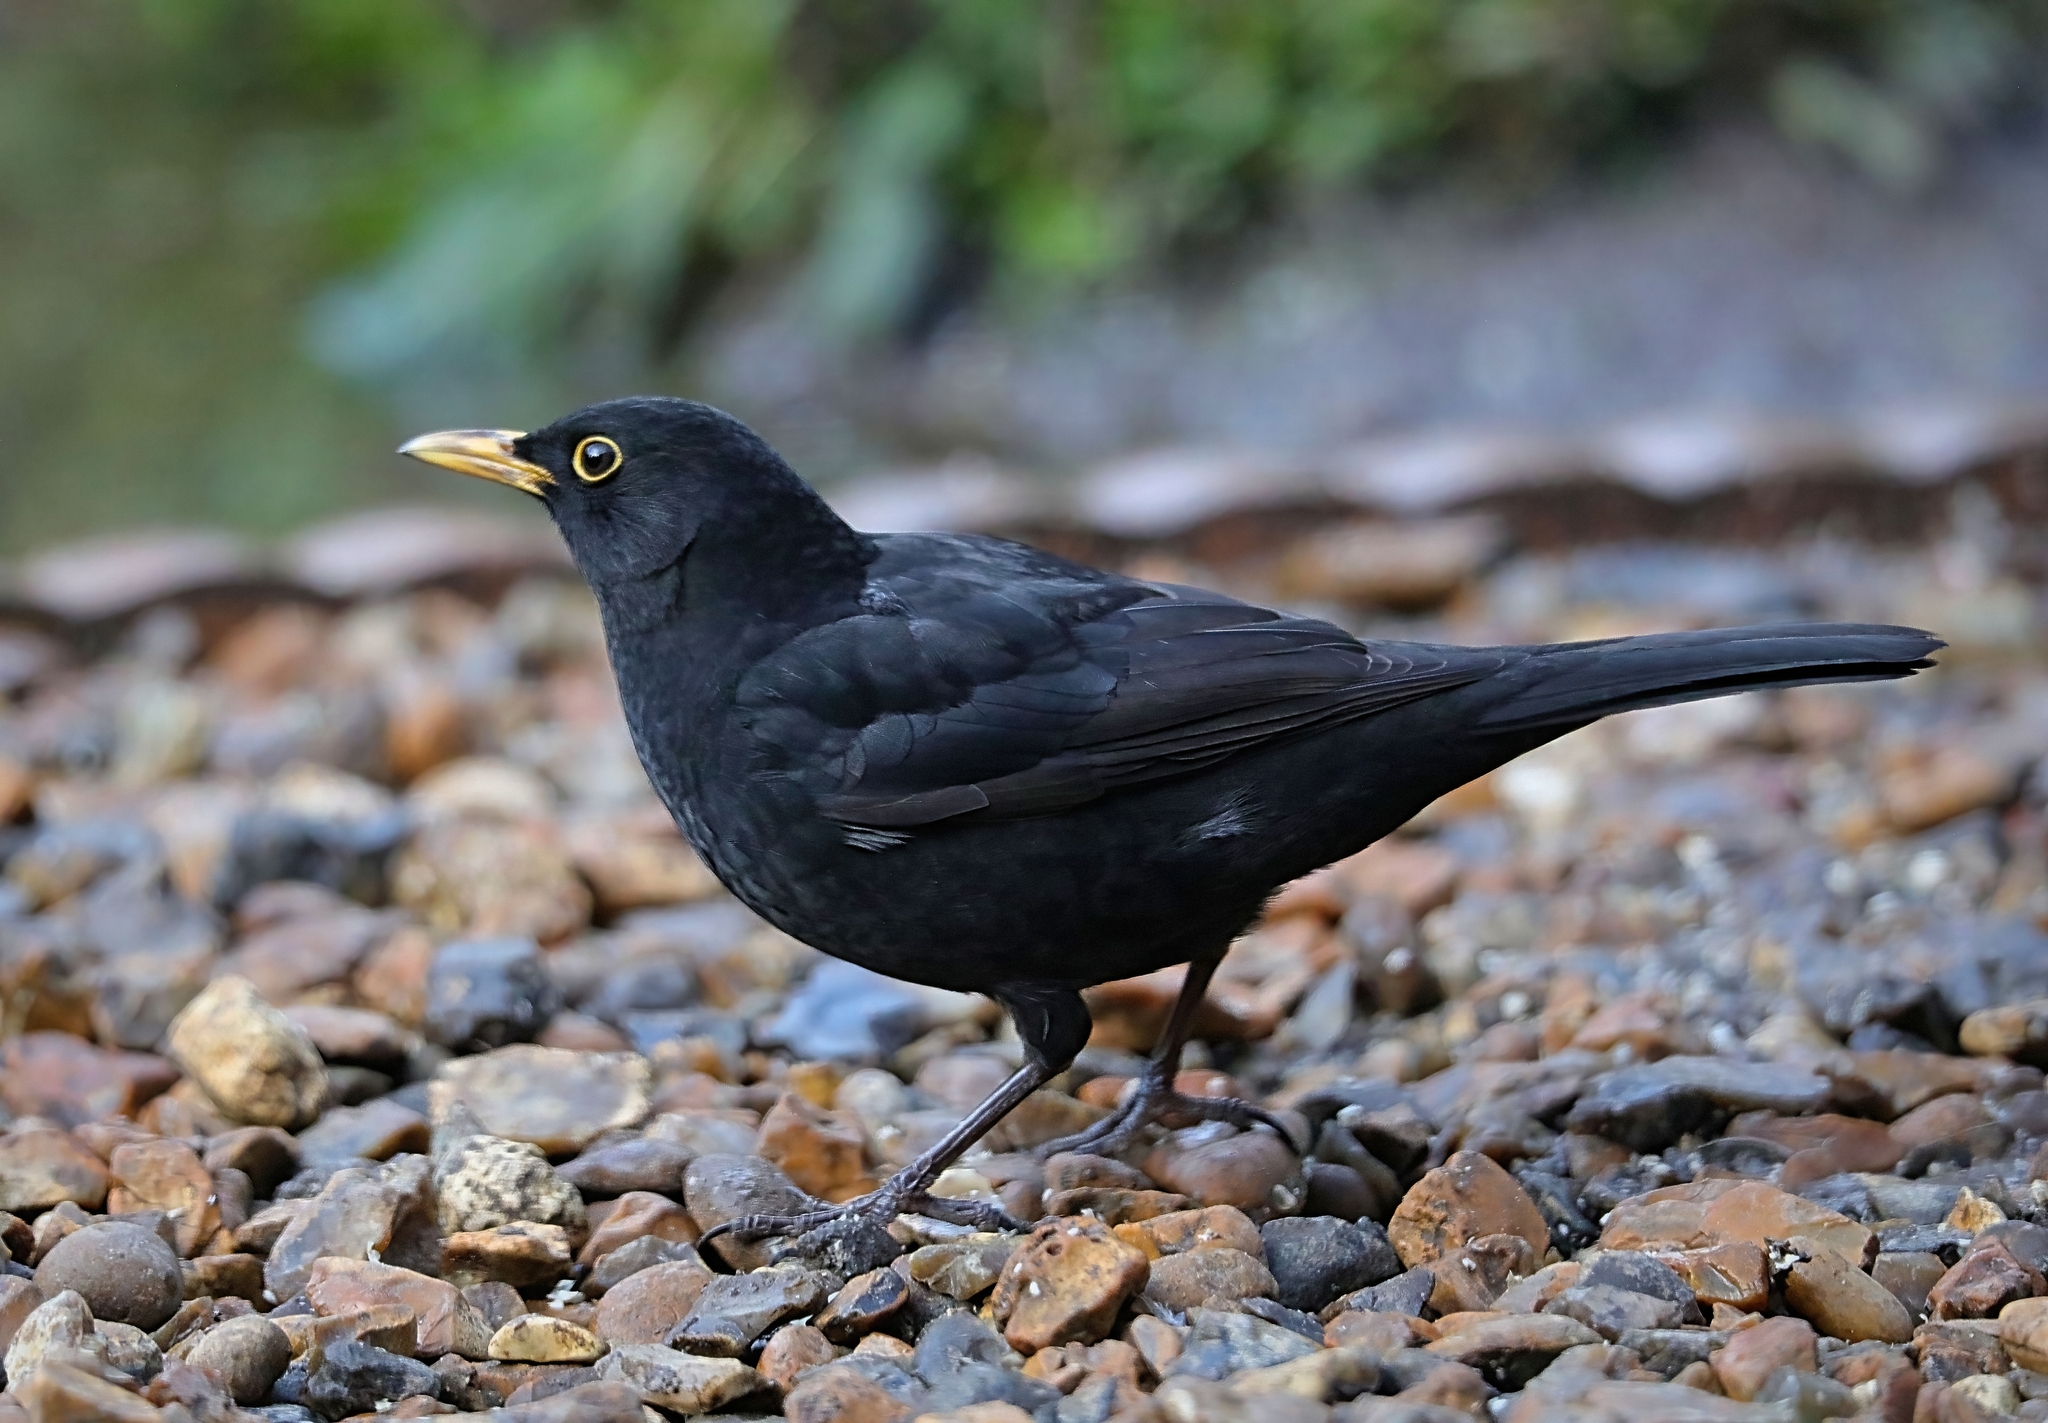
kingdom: Animalia
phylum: Chordata
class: Aves
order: Passeriformes
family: Turdidae
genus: Turdus
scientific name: Turdus merula
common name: Common blackbird
